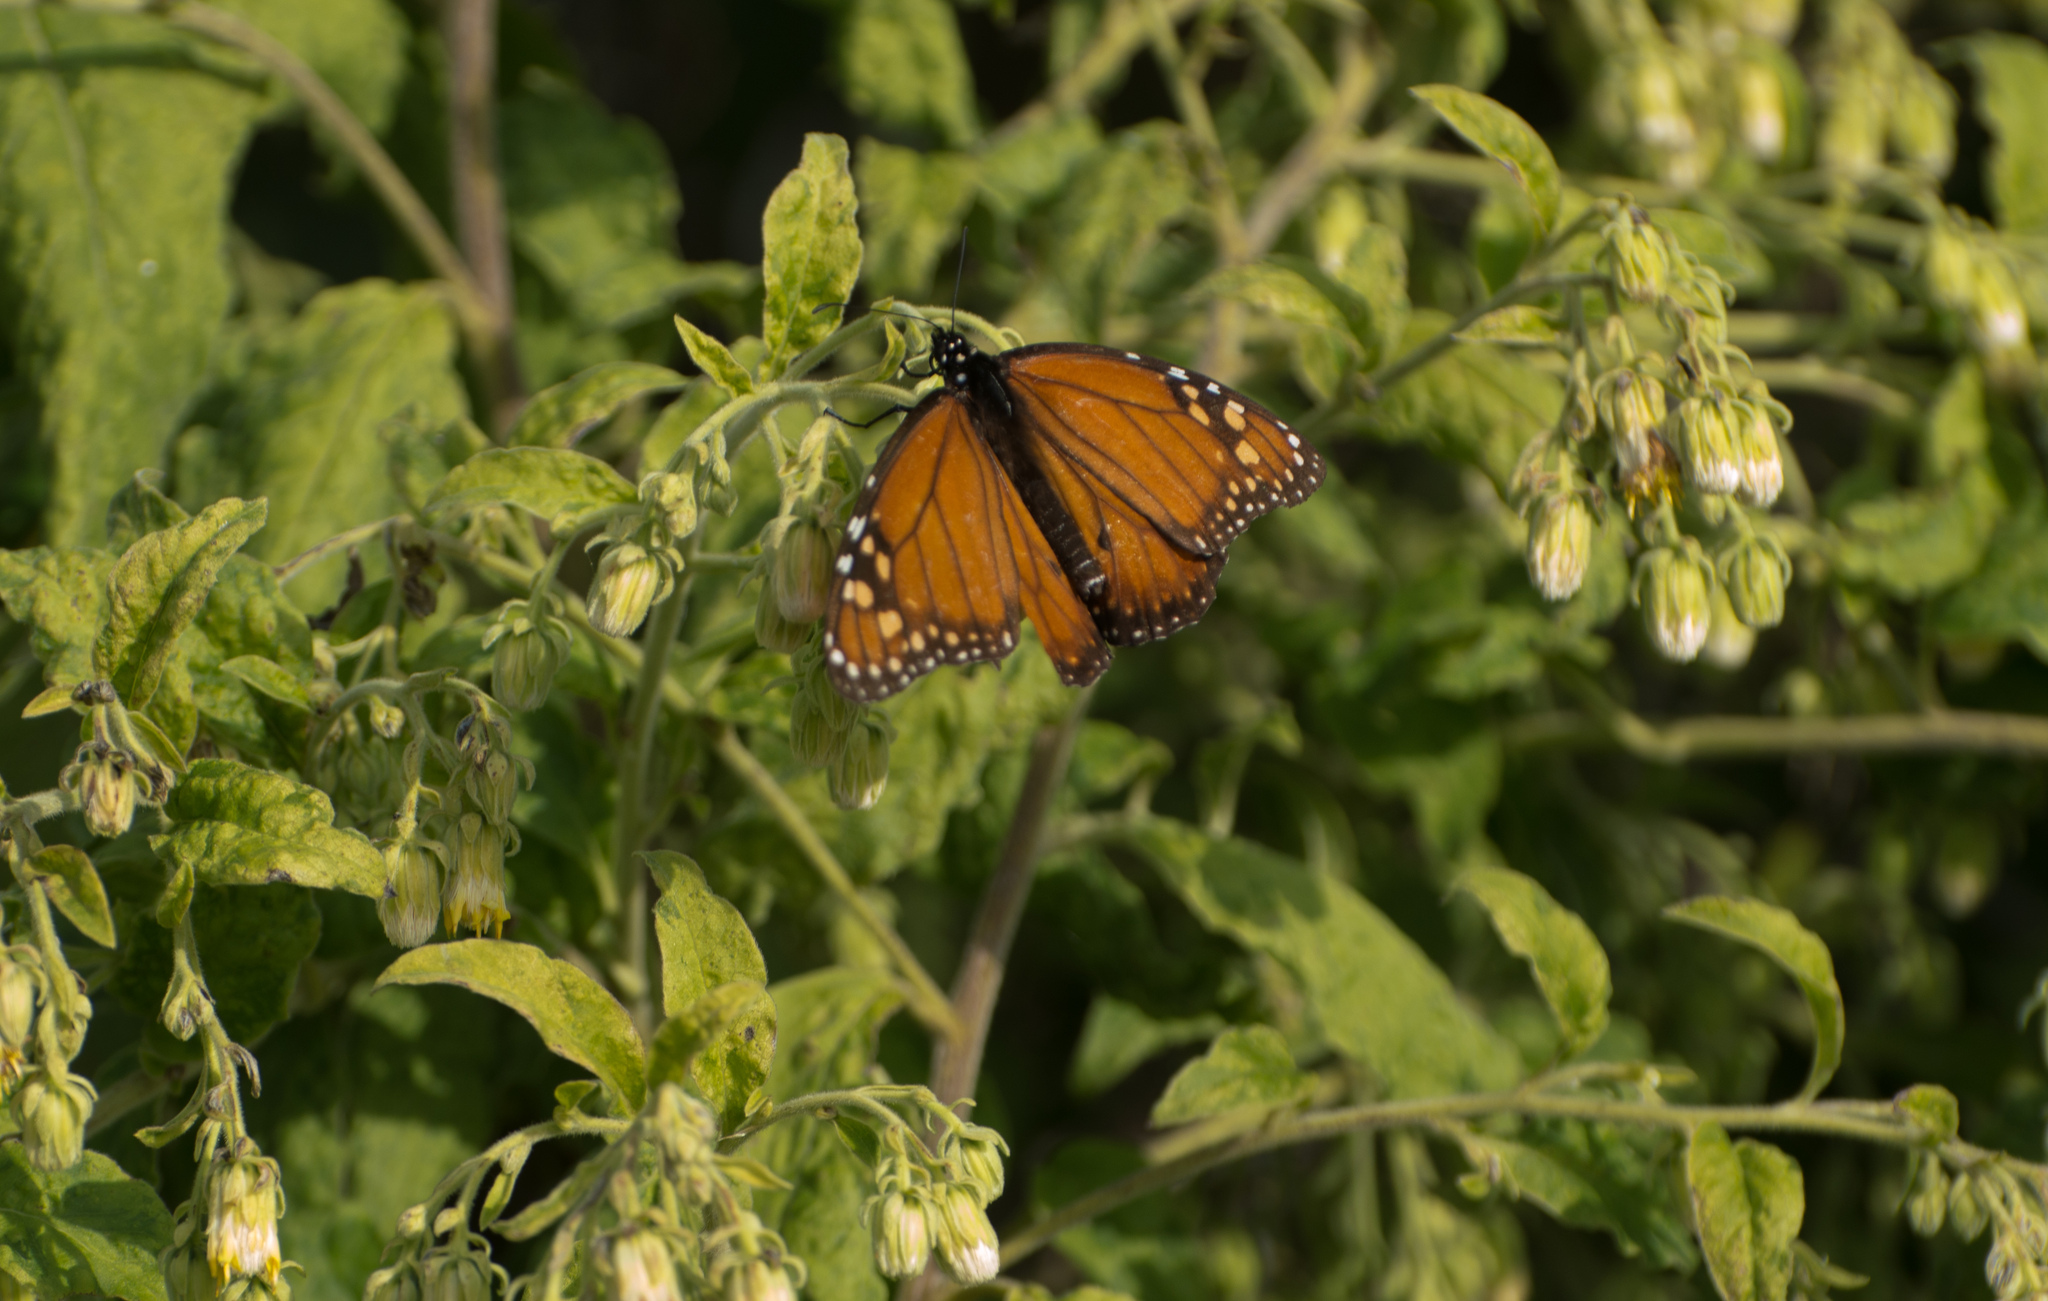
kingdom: Animalia
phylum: Arthropoda
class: Insecta
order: Lepidoptera
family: Nymphalidae
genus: Danaus
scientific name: Danaus erippus
